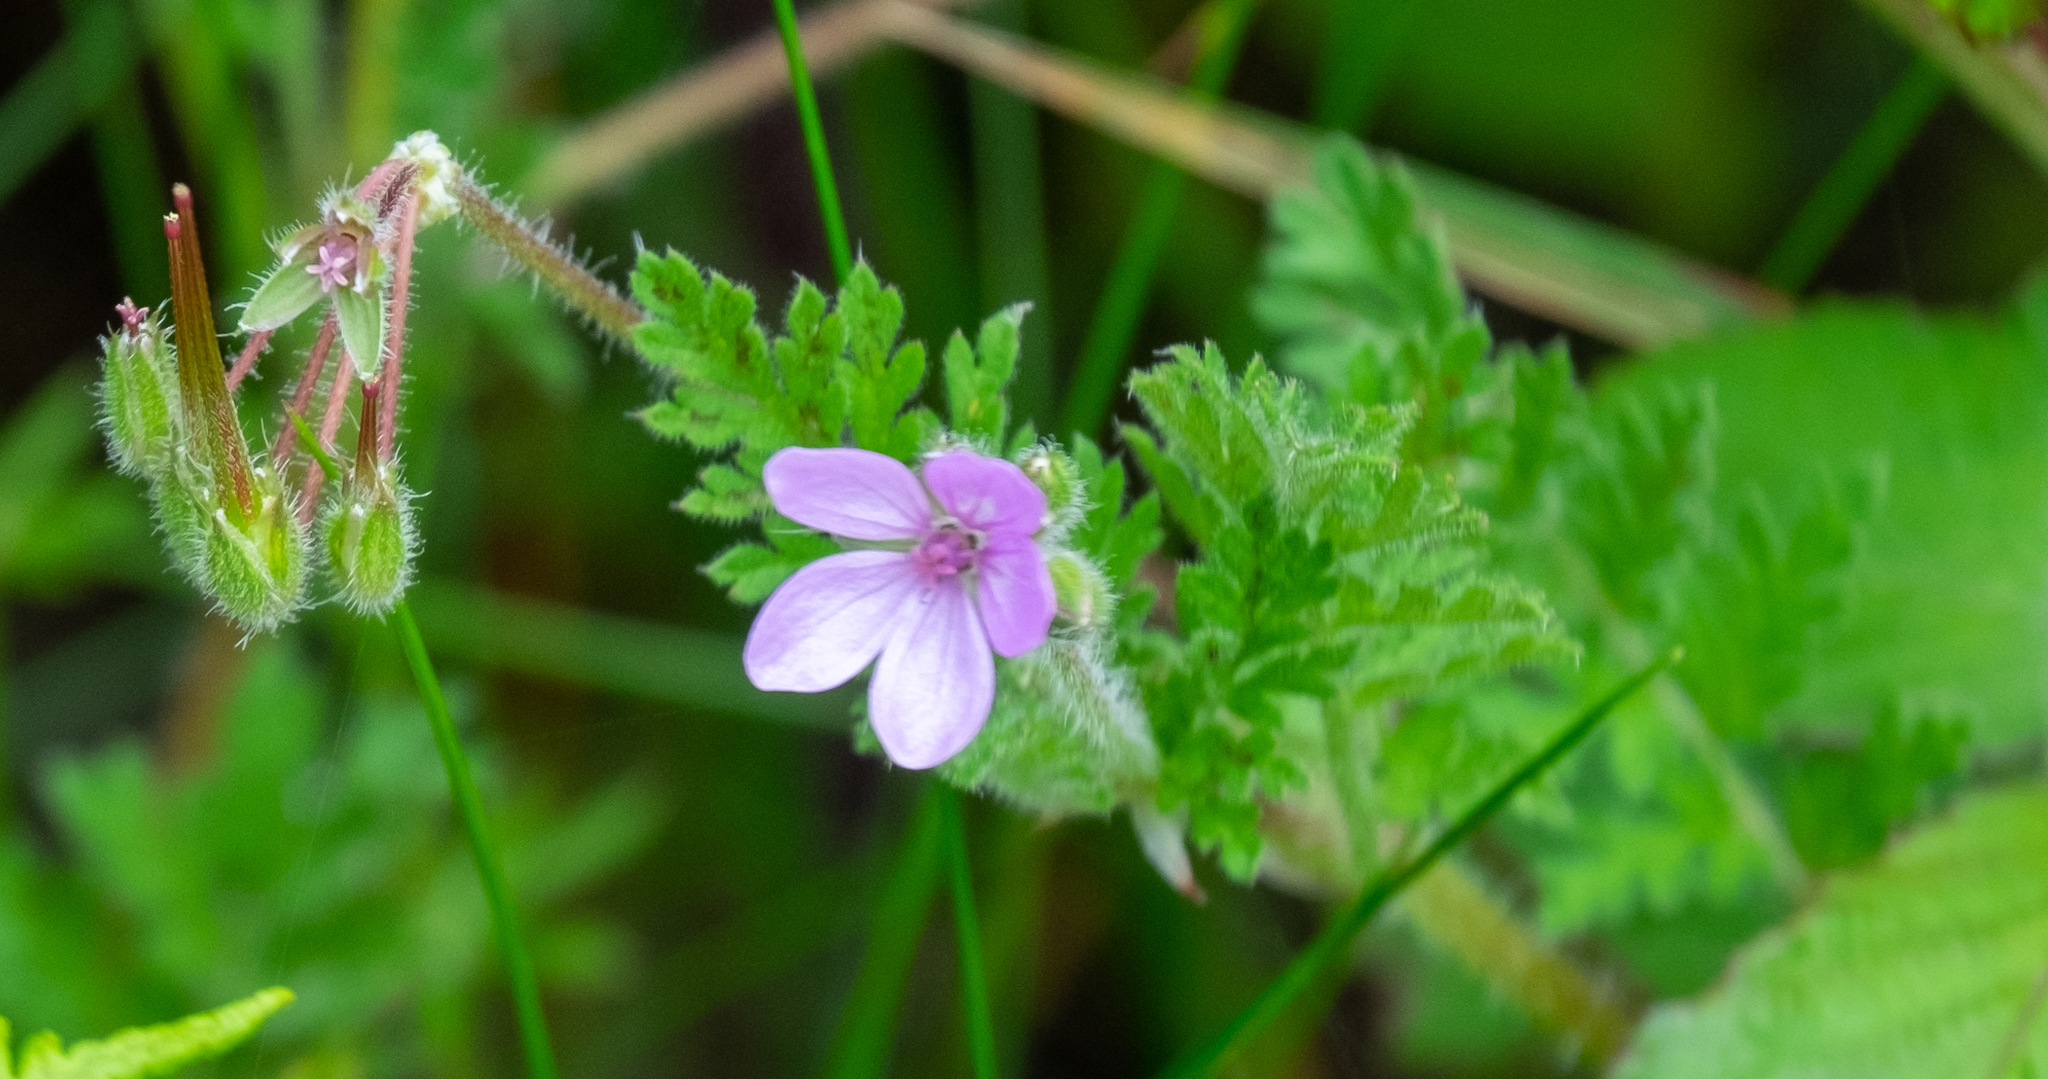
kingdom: Plantae
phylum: Tracheophyta
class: Magnoliopsida
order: Geraniales
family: Geraniaceae
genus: Erodium
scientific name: Erodium cicutarium
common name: Common stork's-bill
